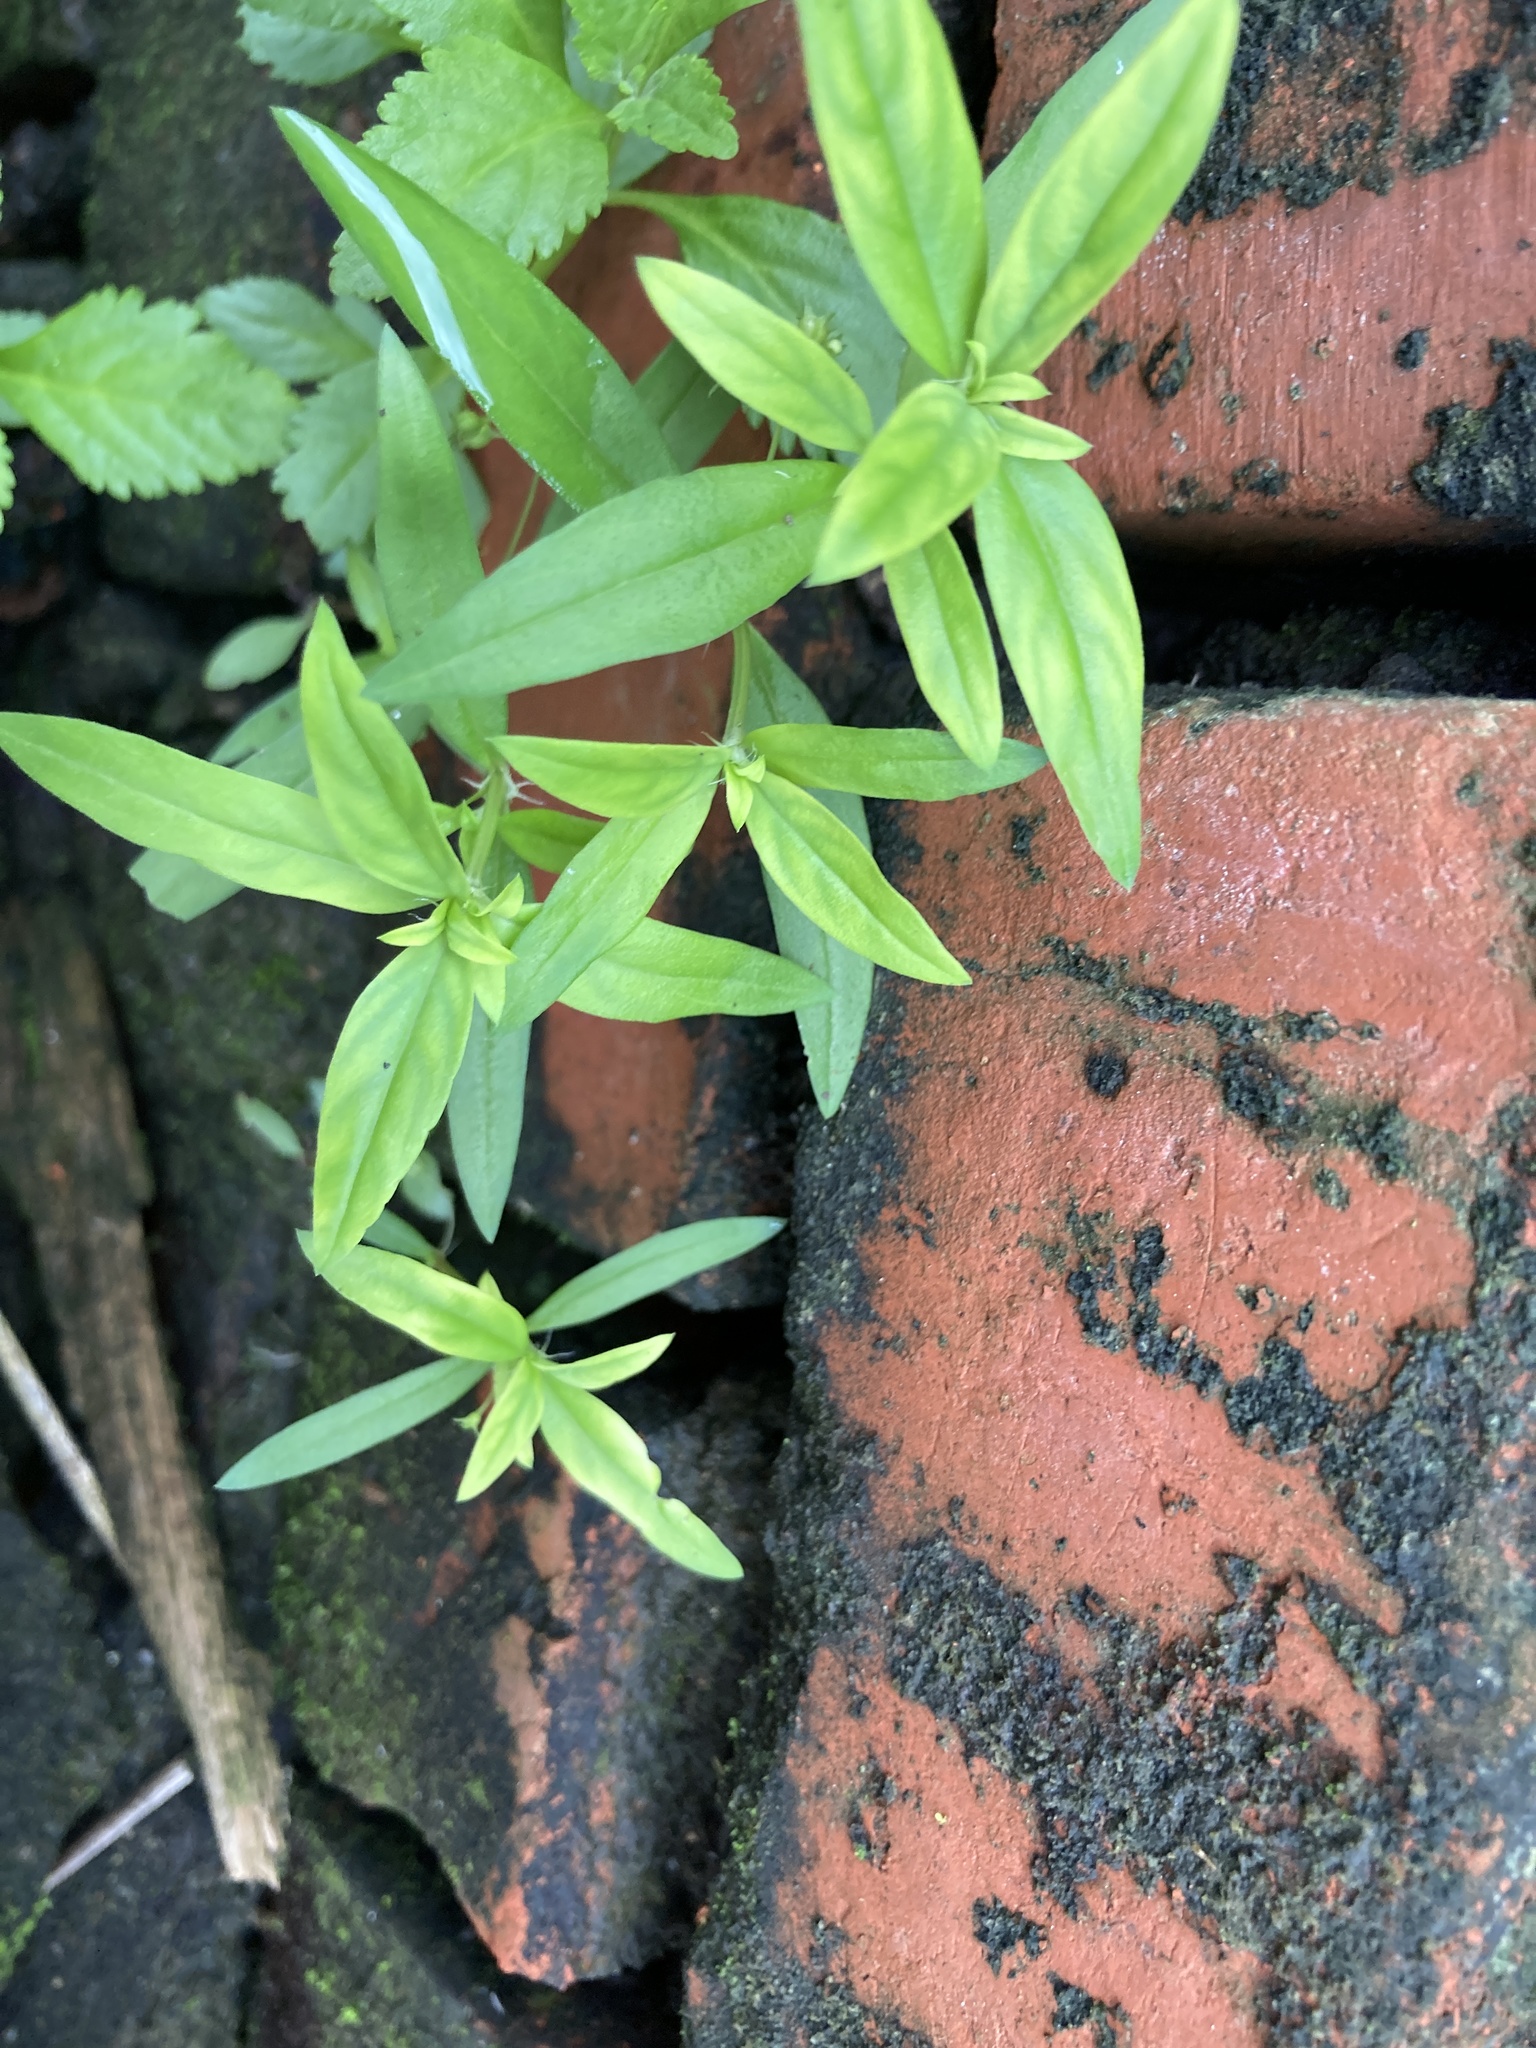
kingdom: Plantae
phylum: Tracheophyta
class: Magnoliopsida
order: Gentianales
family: Rubiaceae
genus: Oldenlandia
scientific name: Oldenlandia corymbosa
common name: Flat-top mille graines
